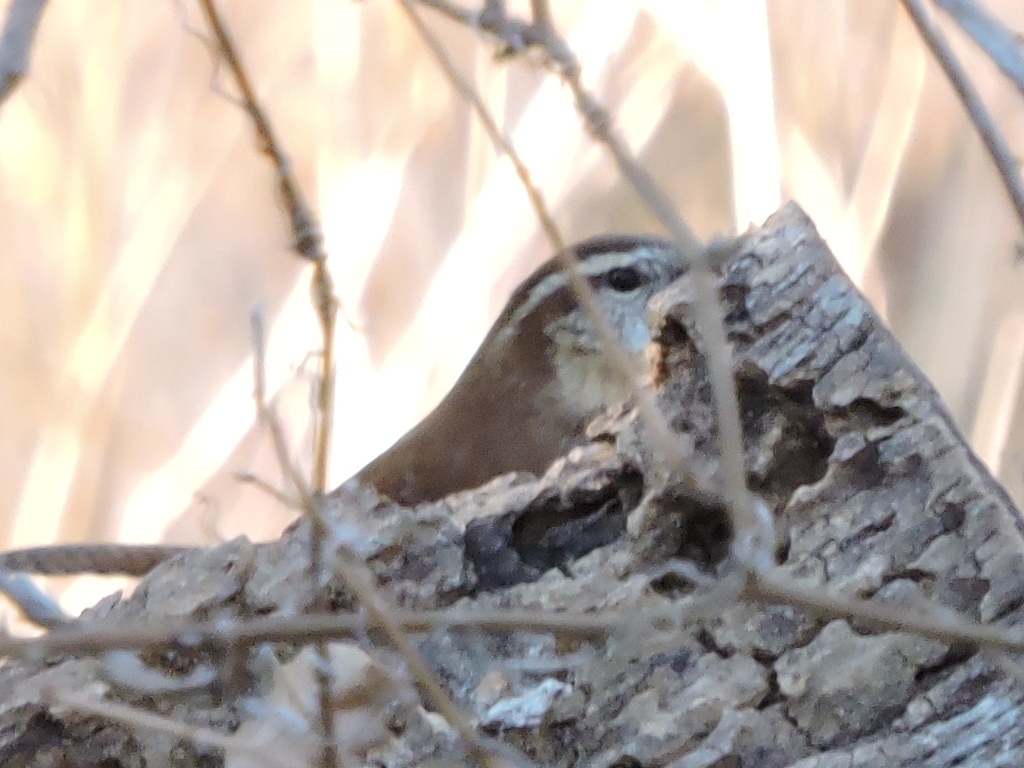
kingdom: Animalia
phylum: Chordata
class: Aves
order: Passeriformes
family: Troglodytidae
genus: Thryothorus
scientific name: Thryothorus ludovicianus
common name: Carolina wren
